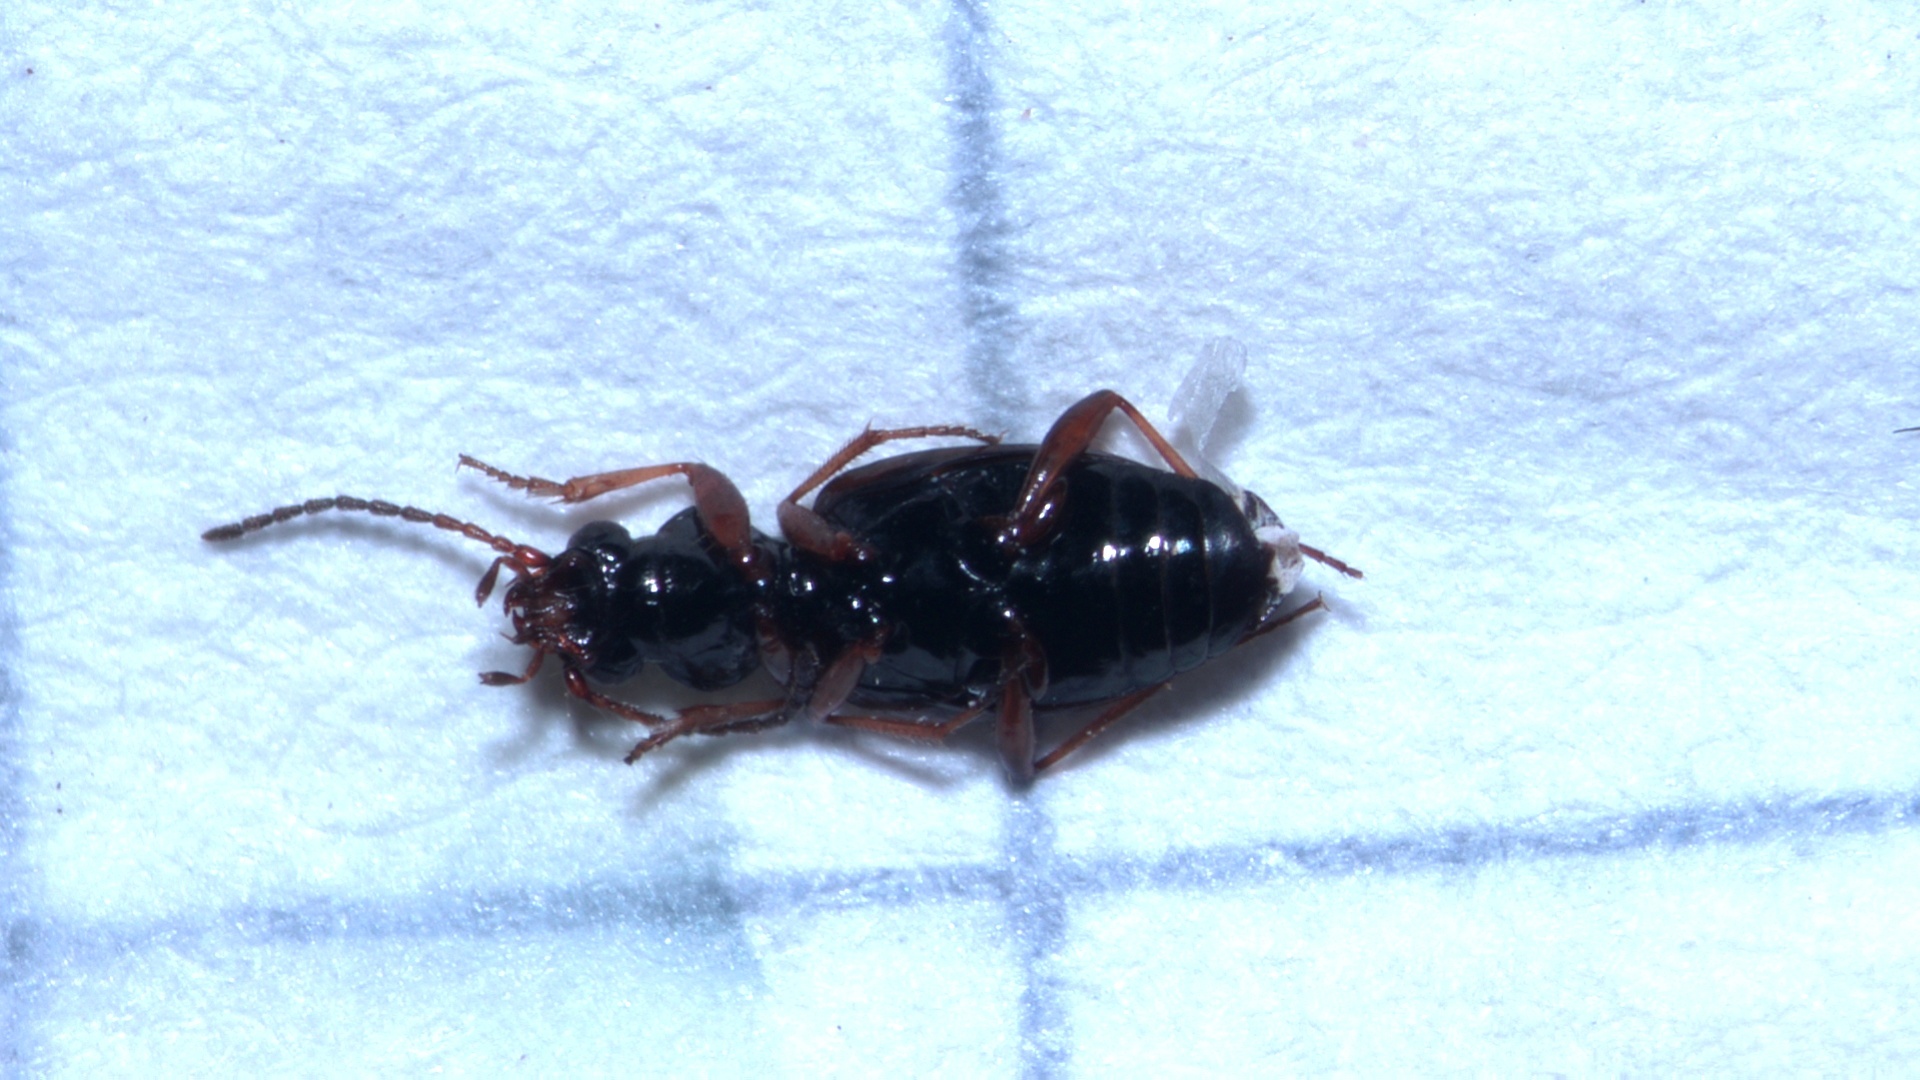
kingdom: Animalia
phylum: Arthropoda
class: Insecta
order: Coleoptera
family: Carabidae
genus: Bembidion
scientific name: Bembidion quadrimaculatum
